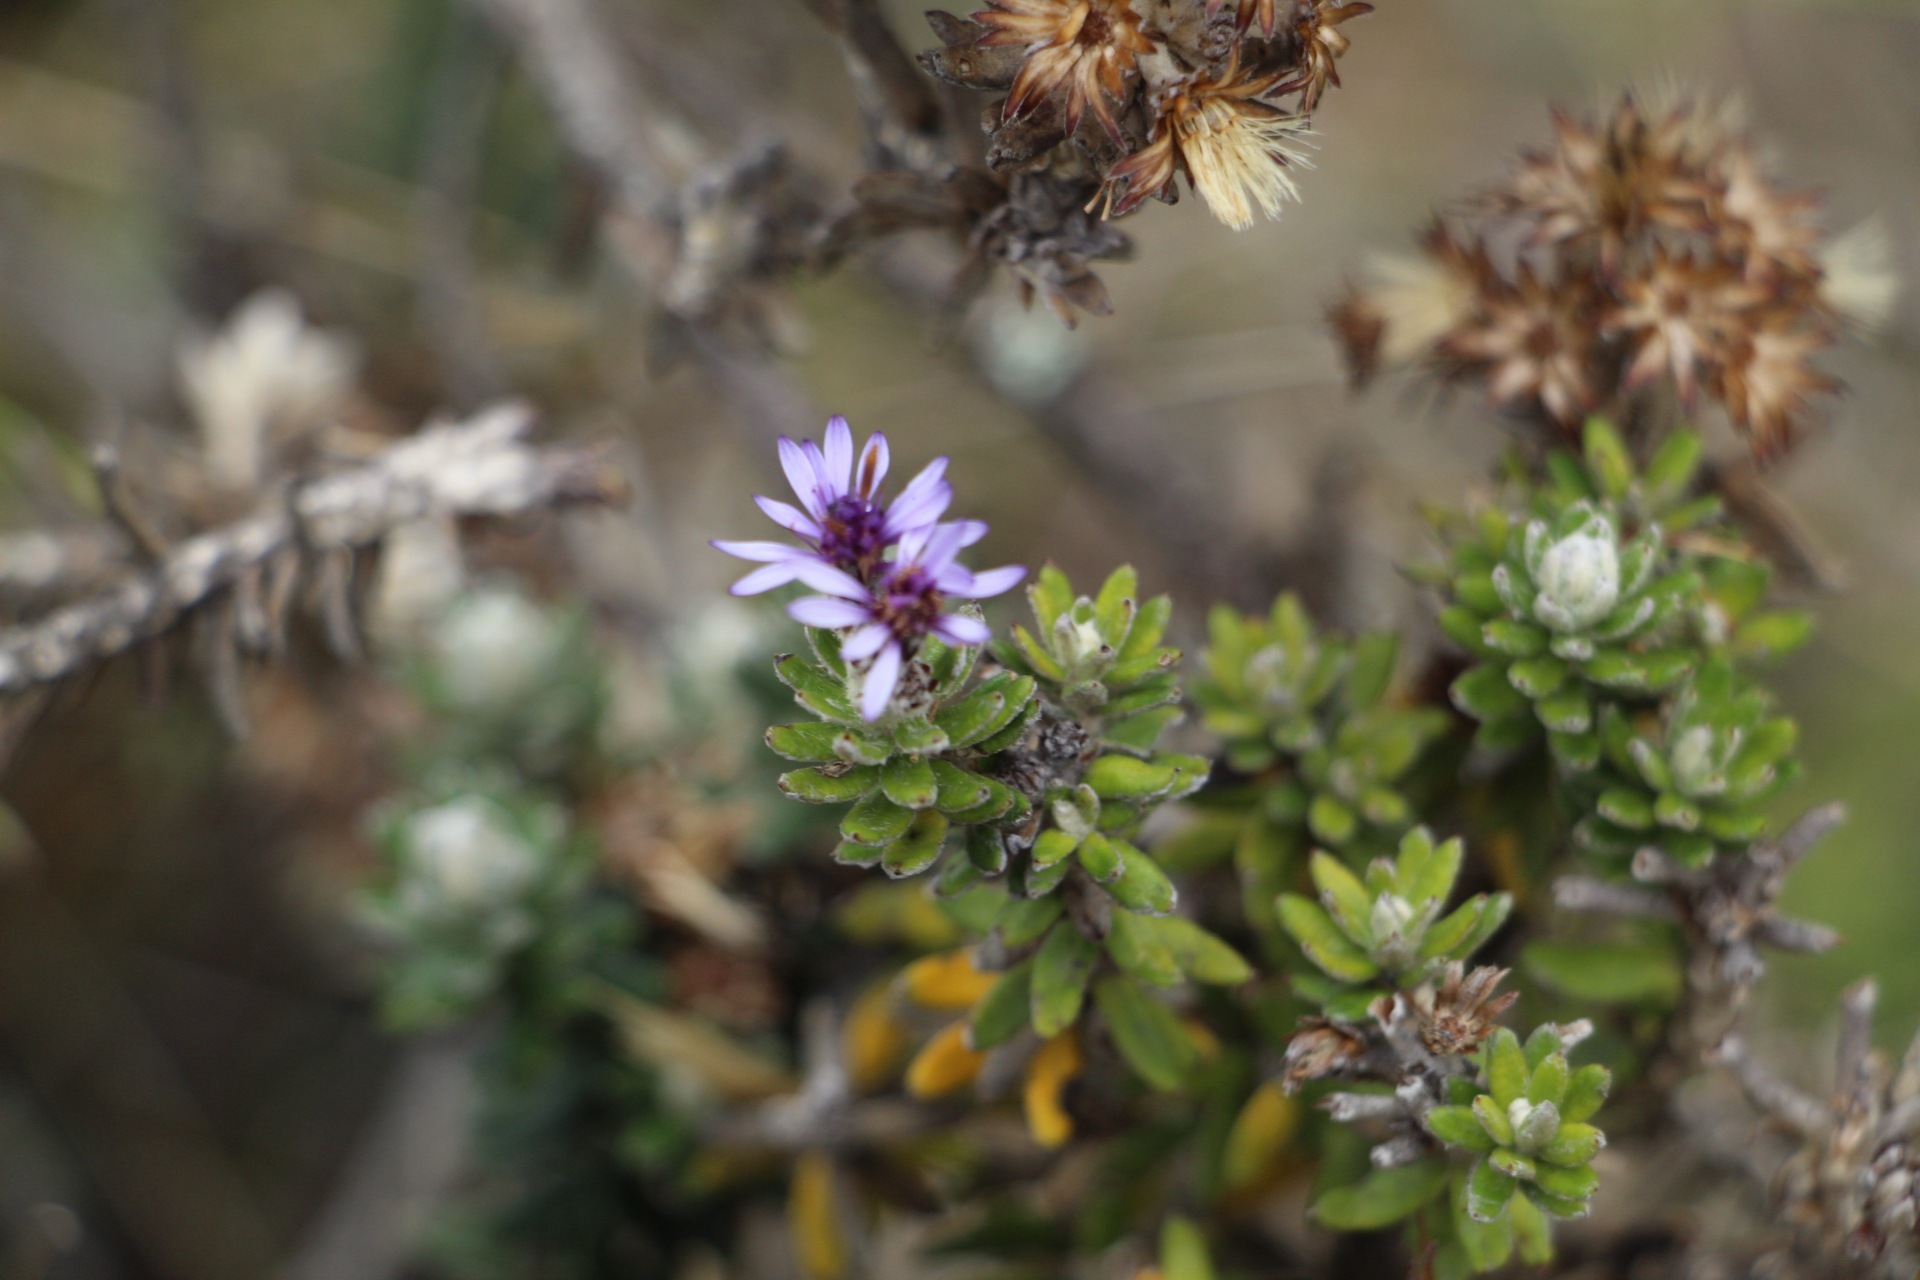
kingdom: Plantae
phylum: Tracheophyta
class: Magnoliopsida
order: Asterales
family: Asteraceae
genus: Linochilus
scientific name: Linochilus phylicoides
